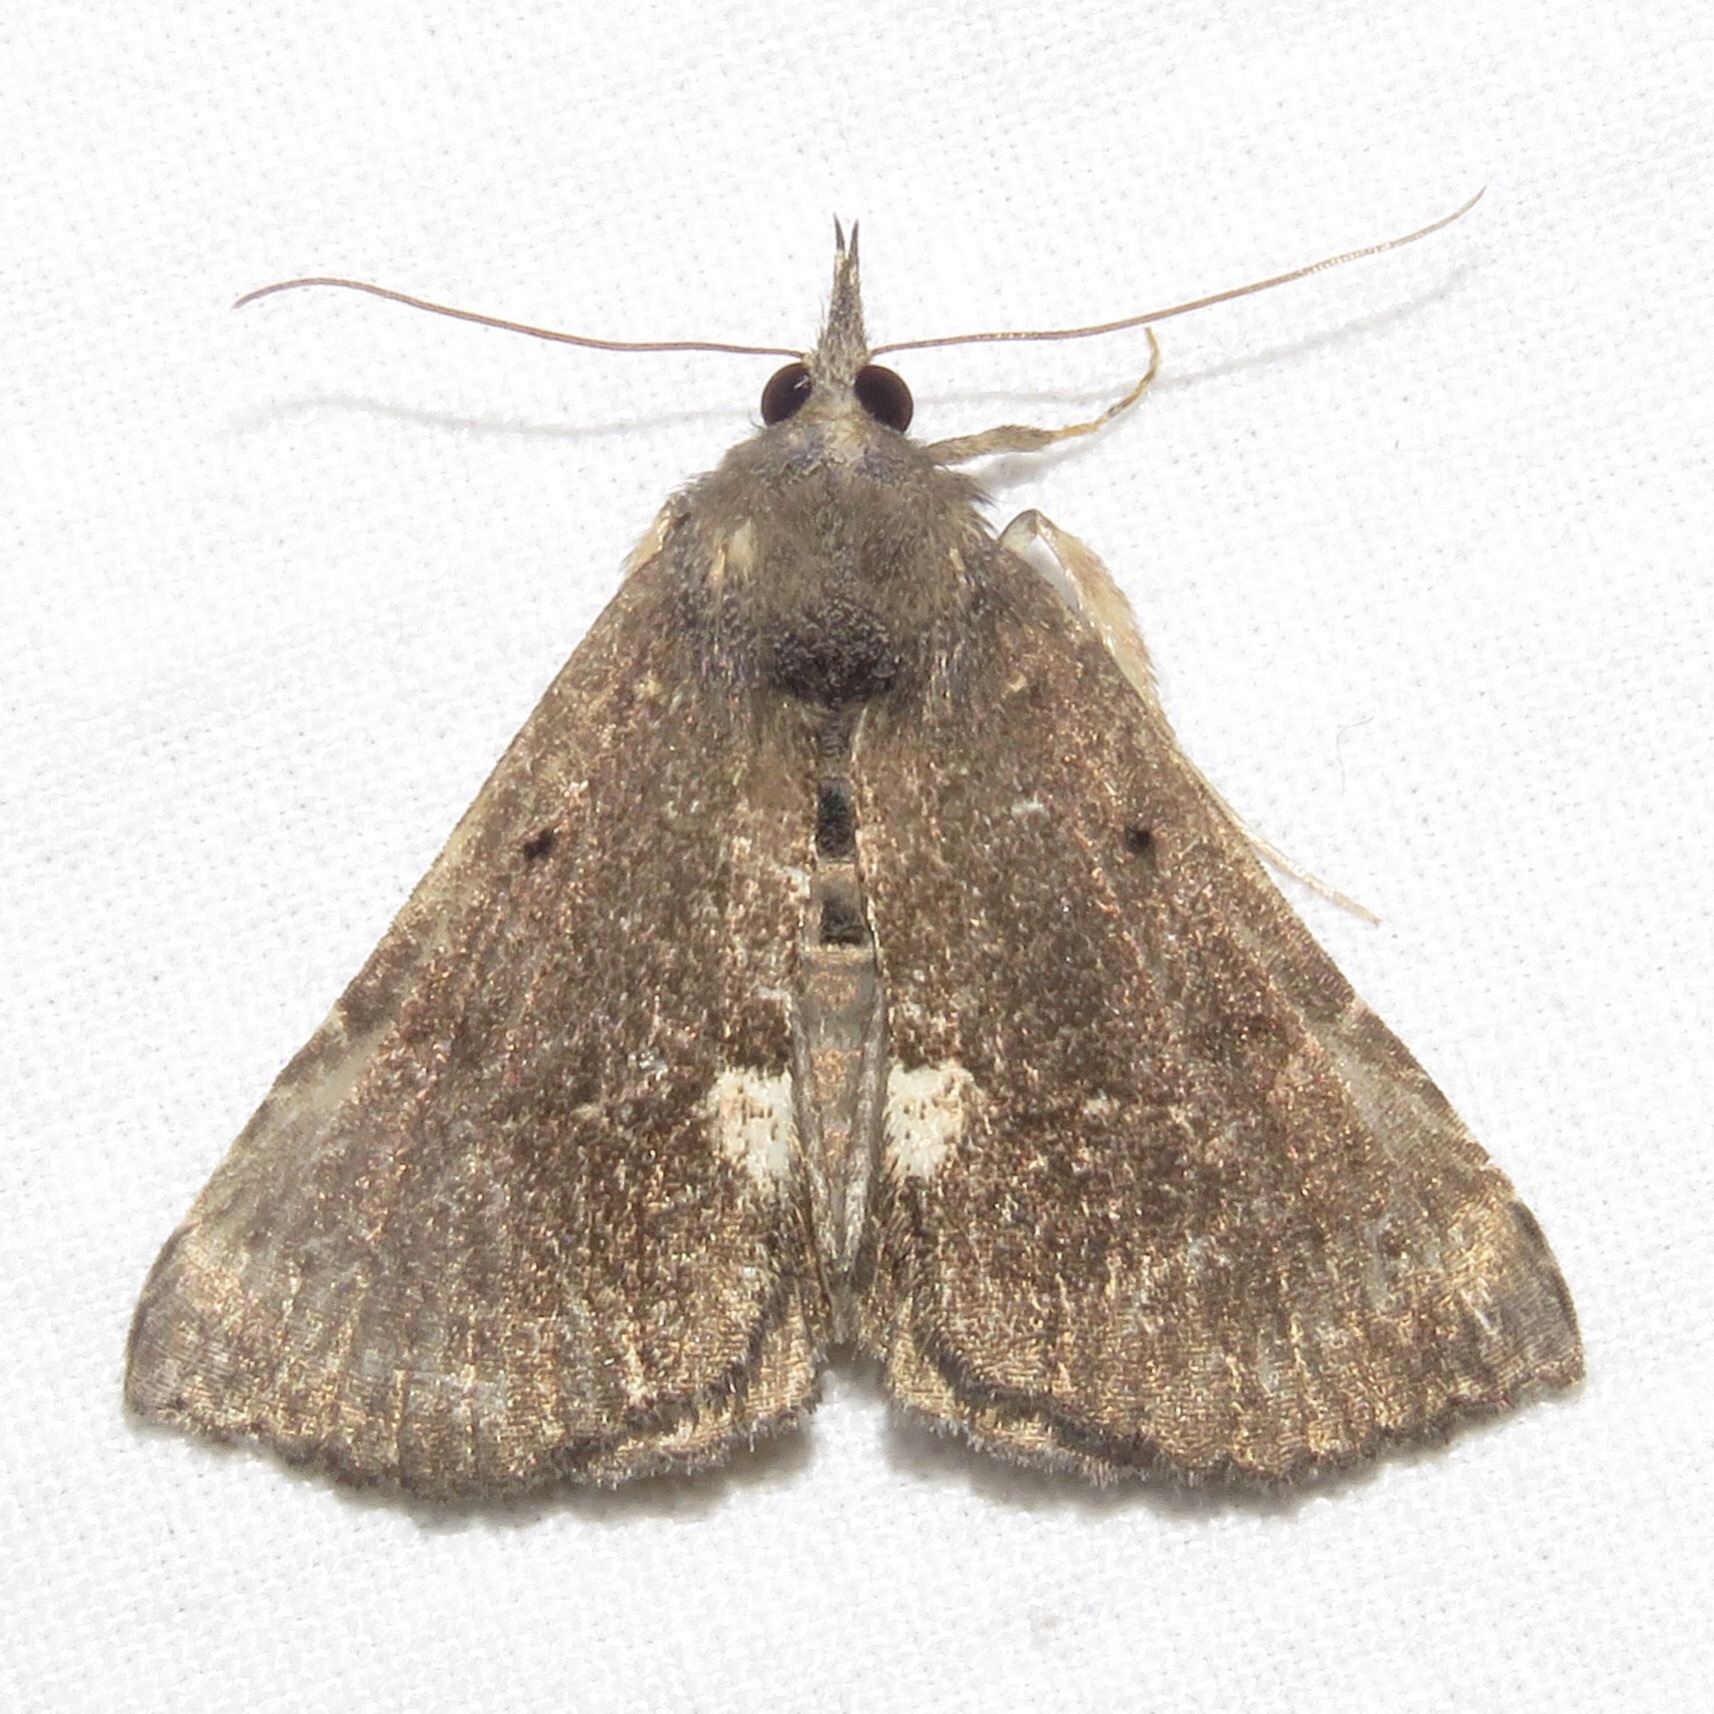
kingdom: Animalia
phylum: Arthropoda
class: Insecta
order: Lepidoptera
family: Erebidae
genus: Hypena
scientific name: Hypena bijugalis
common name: Dimorphic bomolocha moth
